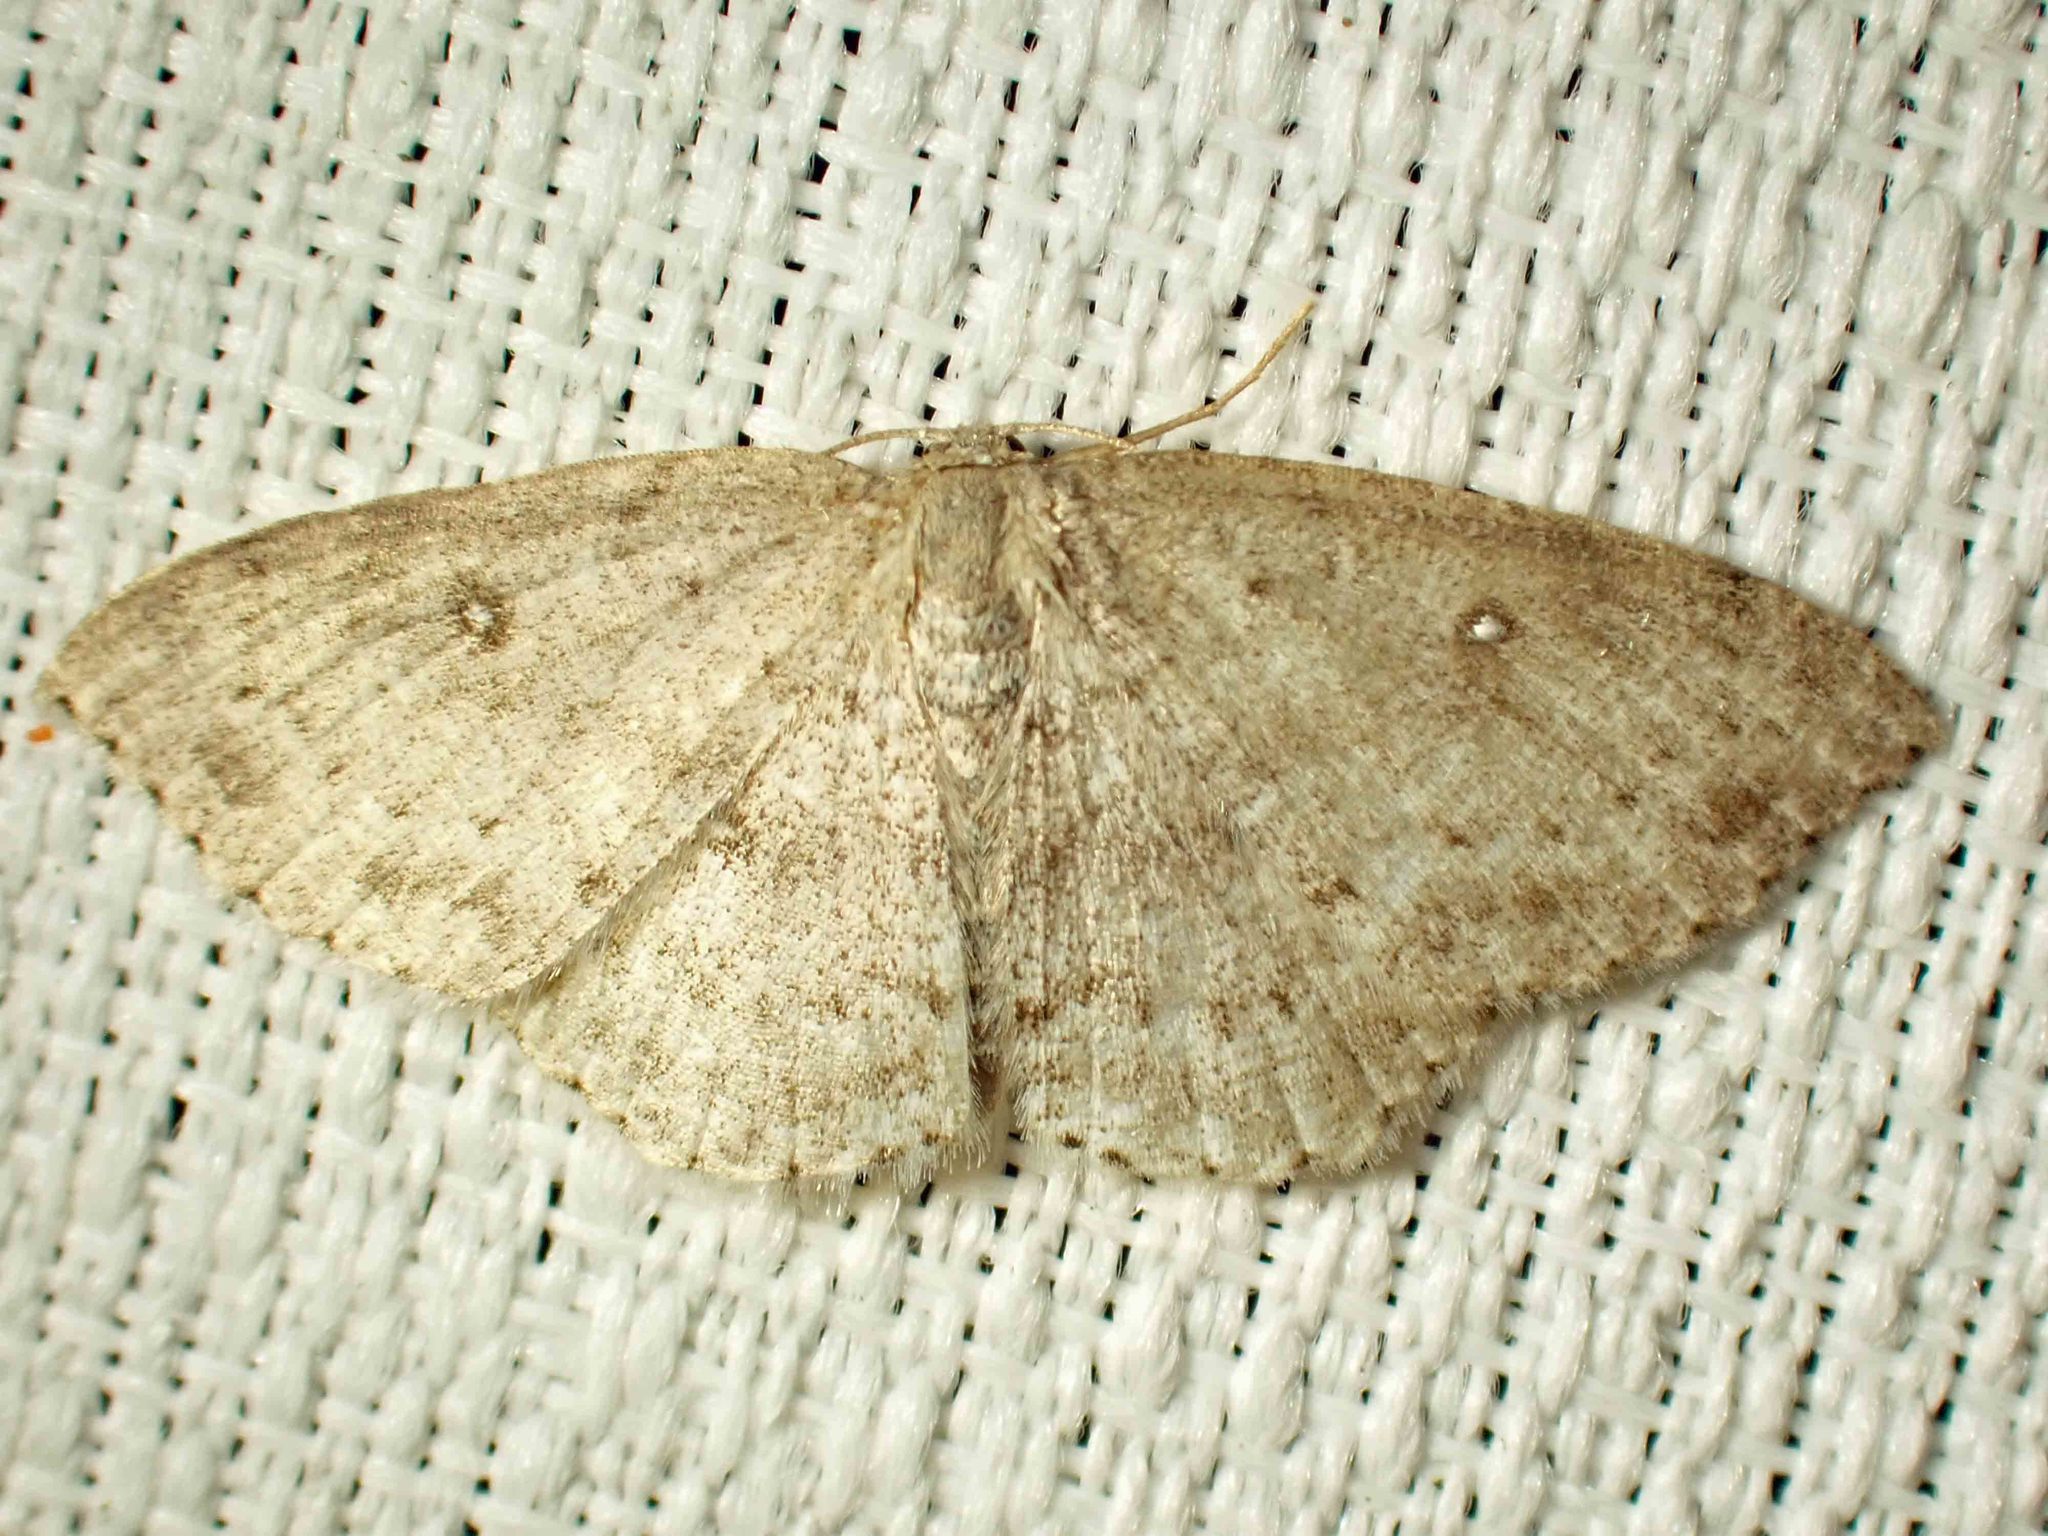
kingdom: Animalia
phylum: Arthropoda
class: Insecta
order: Lepidoptera
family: Geometridae
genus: Cyclophora
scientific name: Cyclophora pendulinaria
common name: Sweet fern geometer
